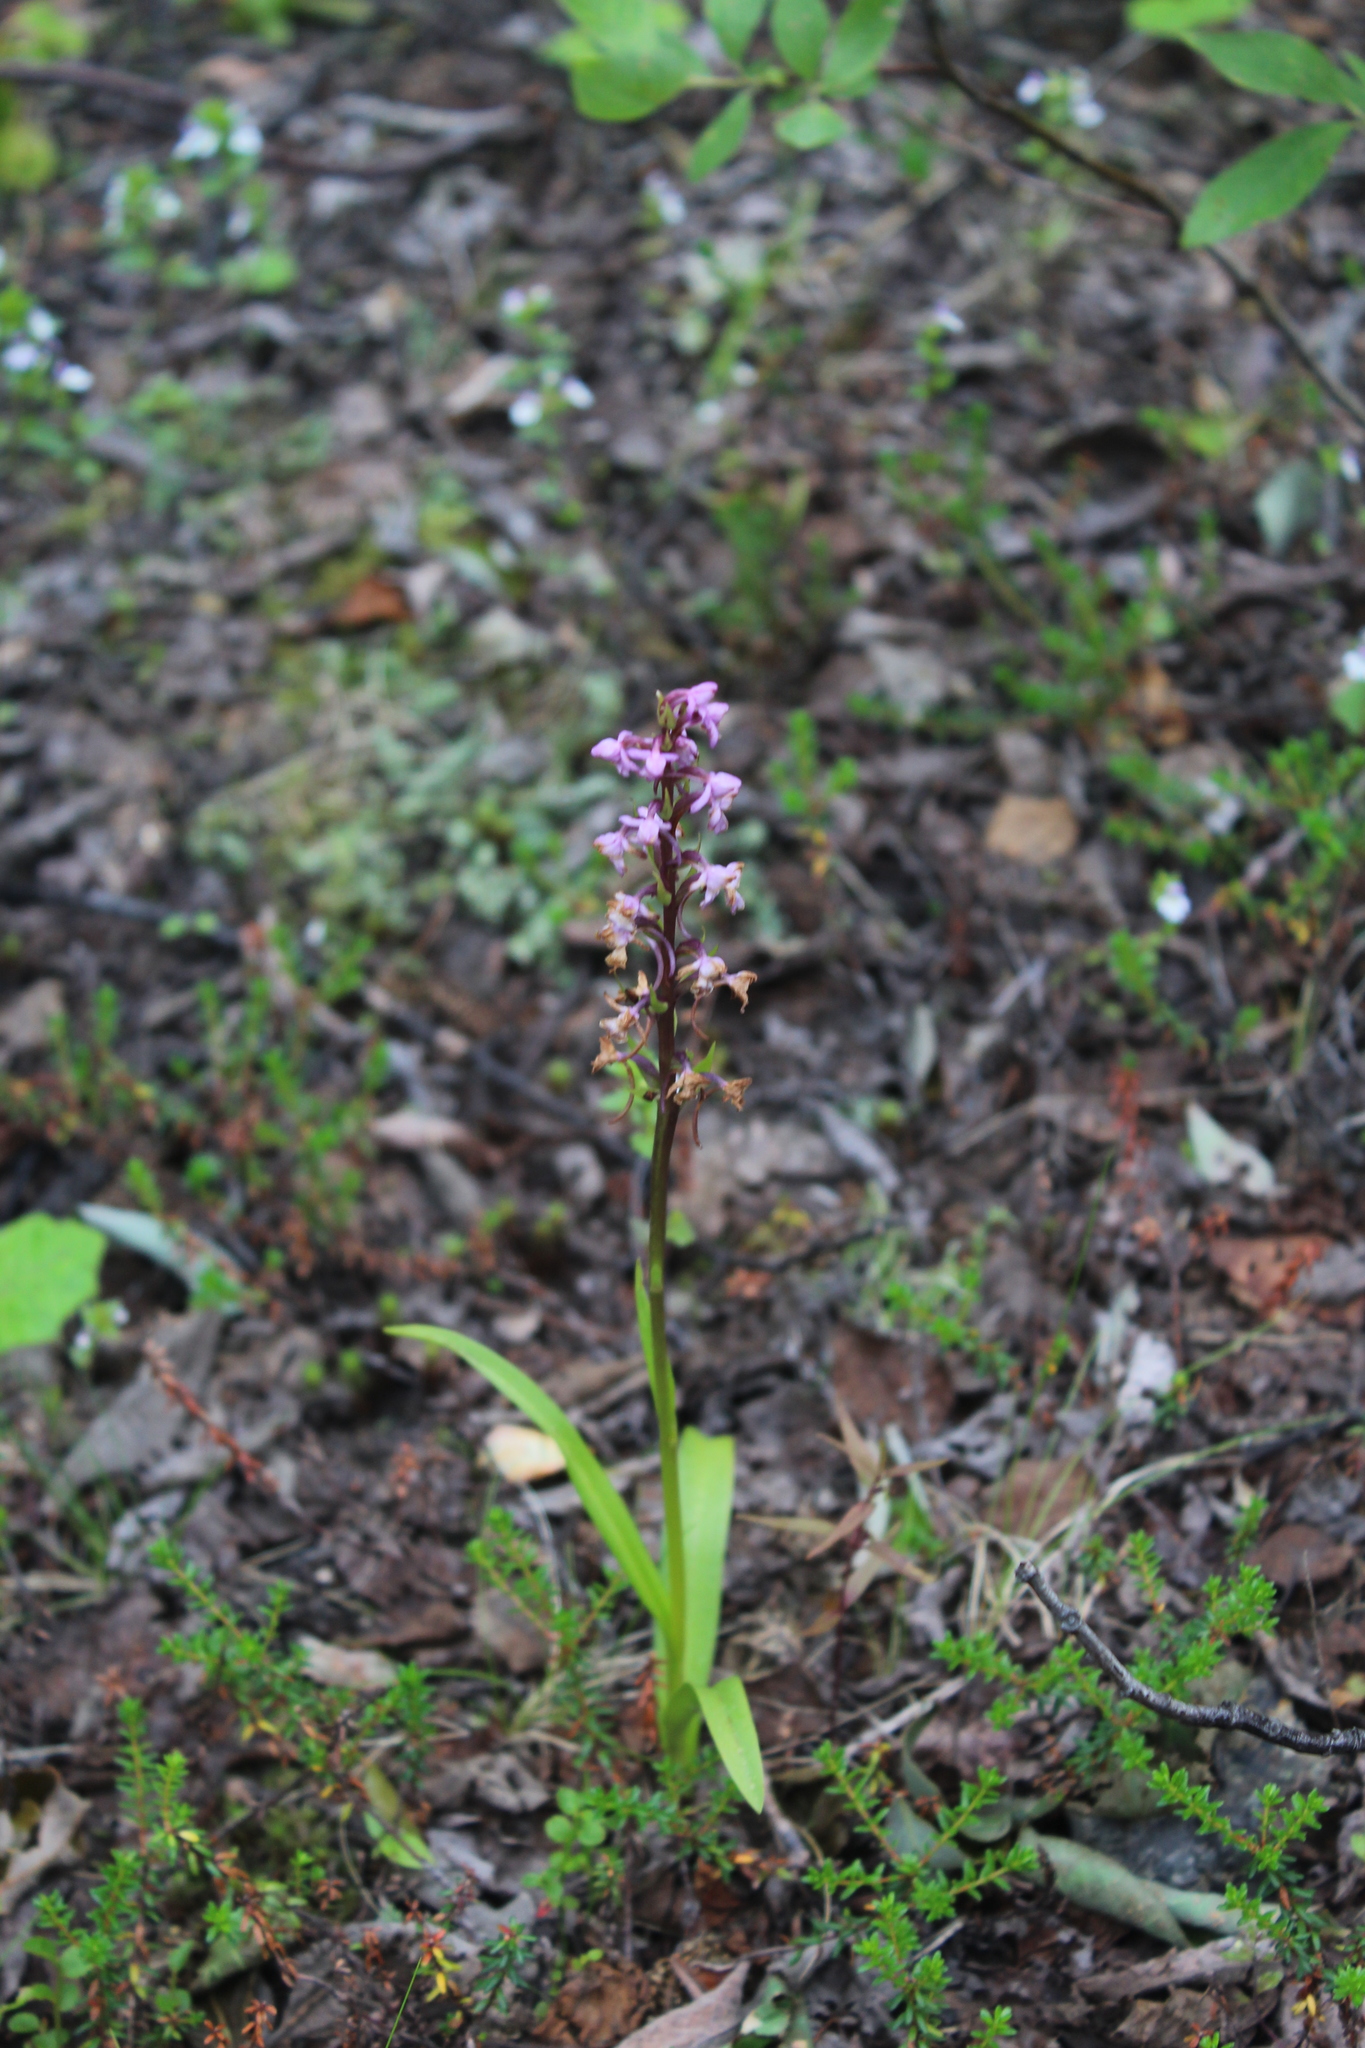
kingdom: Plantae
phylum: Tracheophyta
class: Liliopsida
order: Asparagales
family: Orchidaceae
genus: Gymnadenia
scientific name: Gymnadenia conopsea
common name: Fragrant orchid
